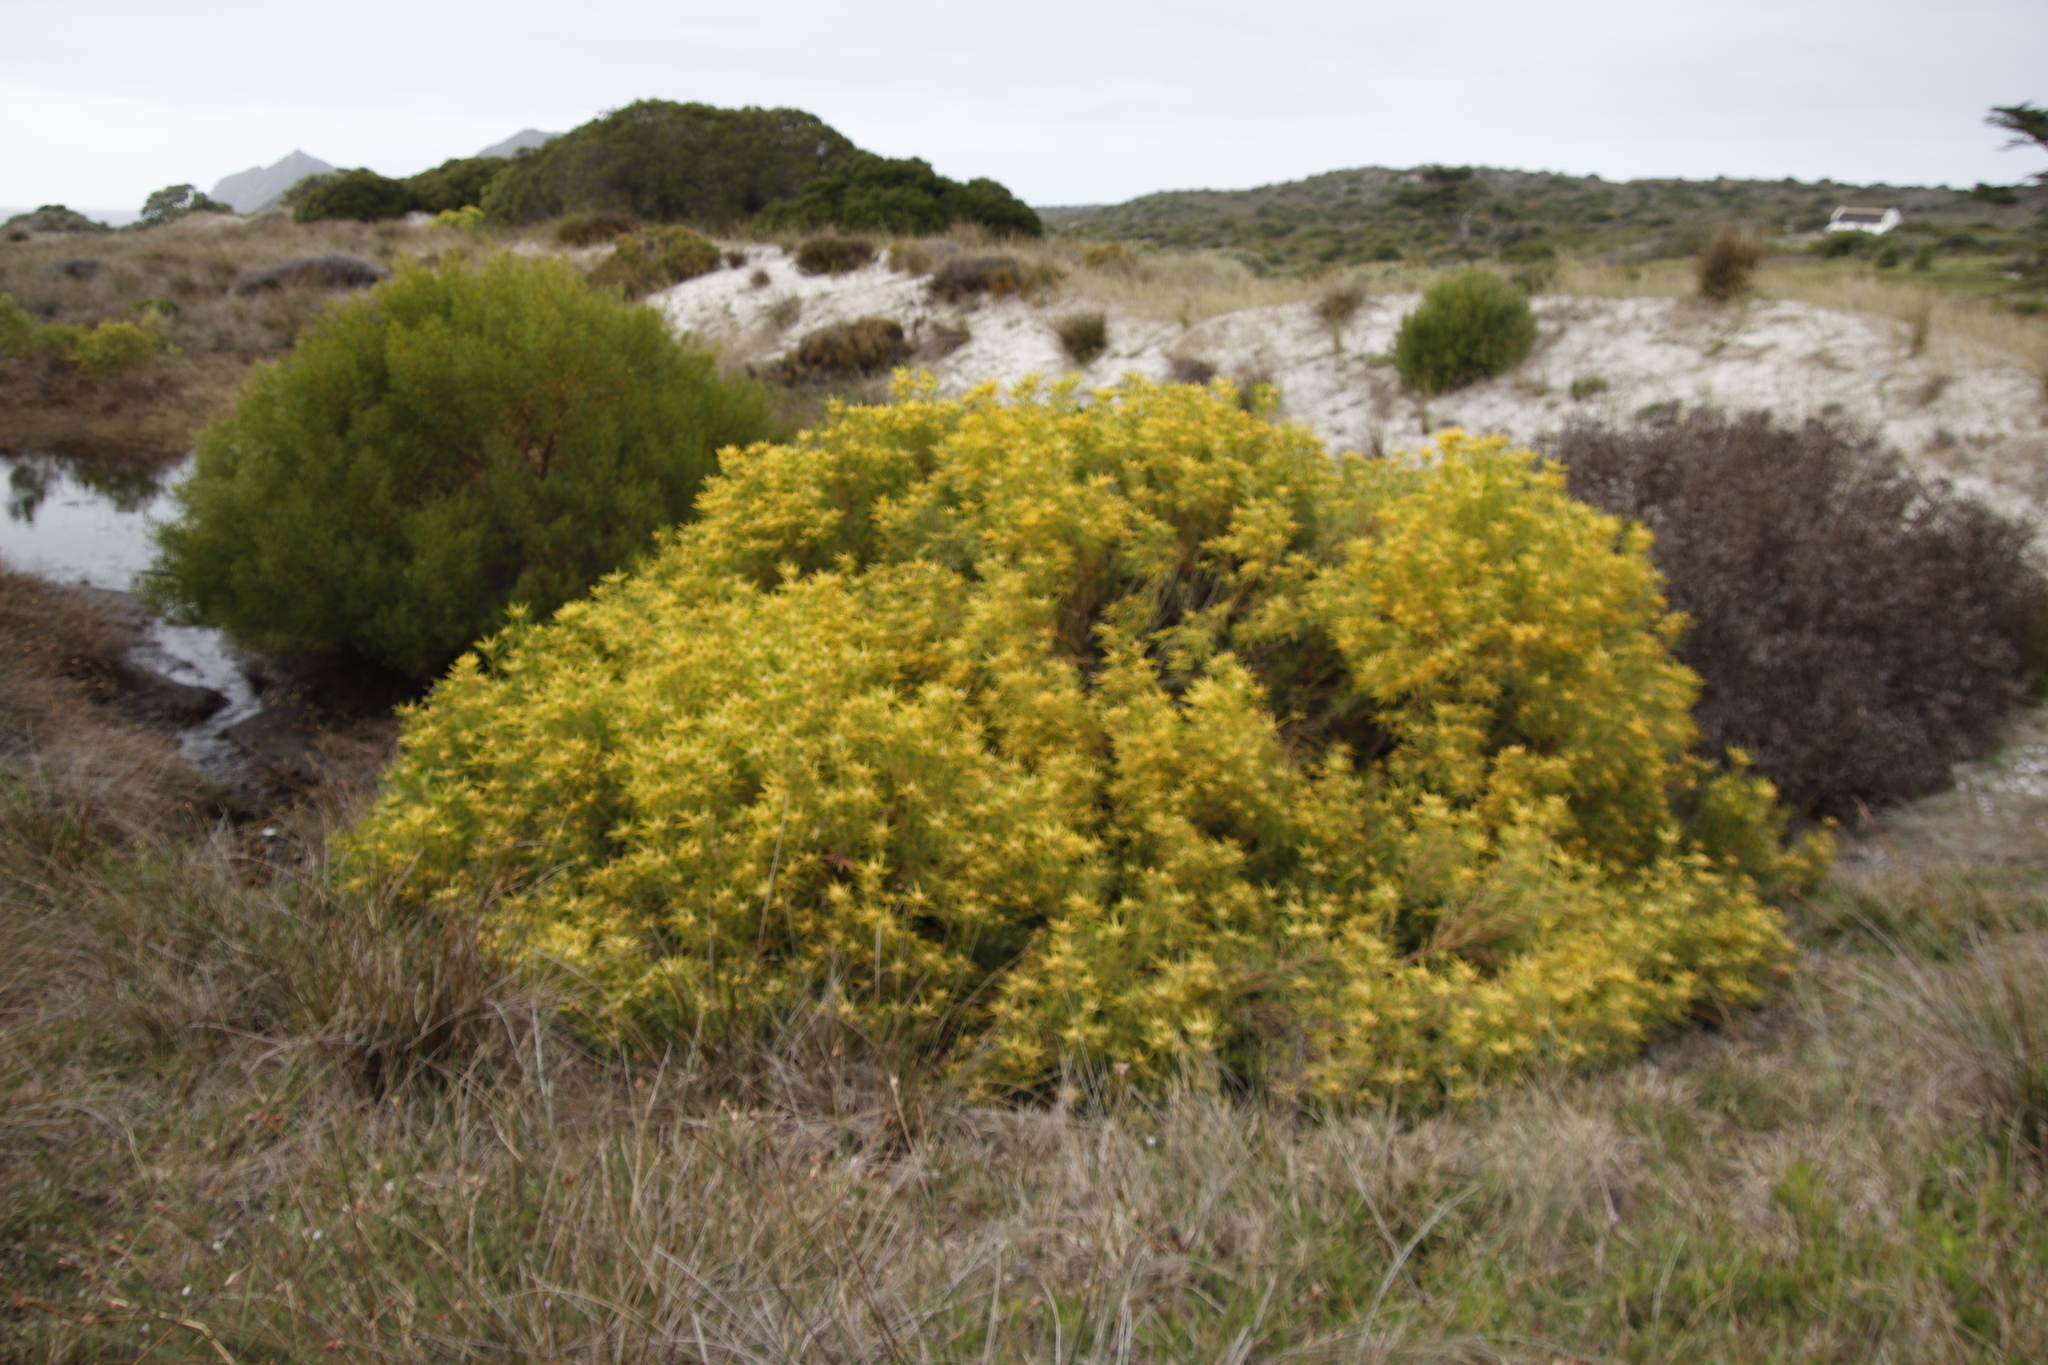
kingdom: Plantae
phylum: Tracheophyta
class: Magnoliopsida
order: Proteales
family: Proteaceae
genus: Leucadendron
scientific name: Leucadendron coniferum
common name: Dune conebush
